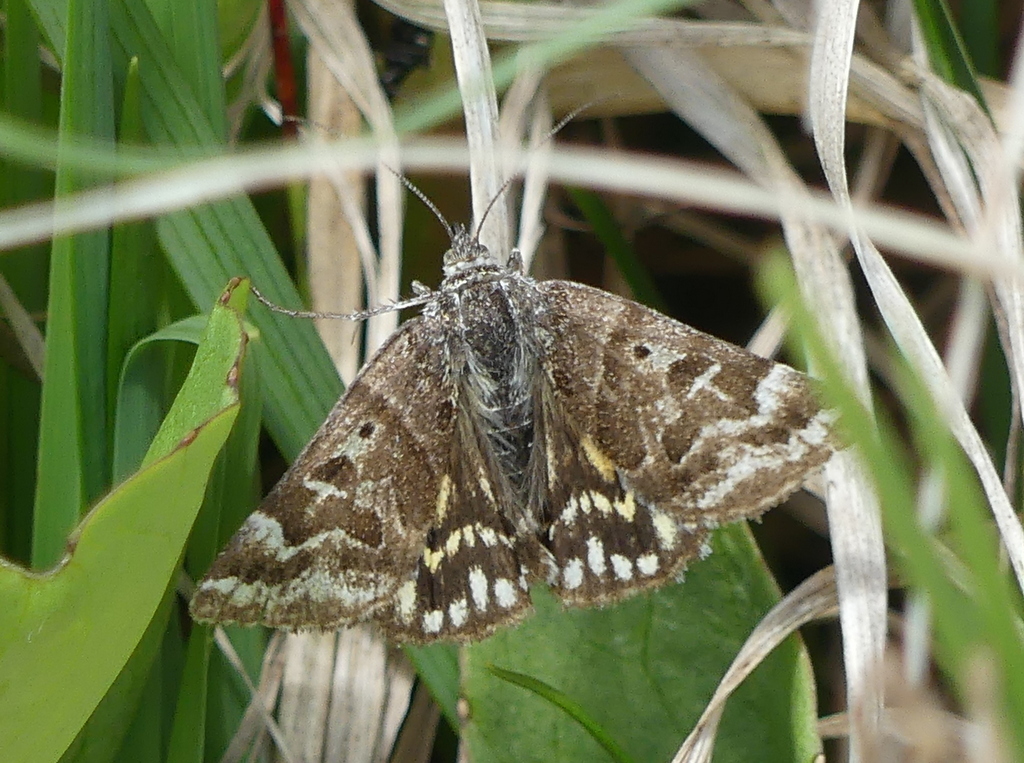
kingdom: Animalia
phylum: Arthropoda
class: Insecta
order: Lepidoptera
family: Erebidae
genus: Callistege
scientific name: Callistege mi
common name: Mother shipton
